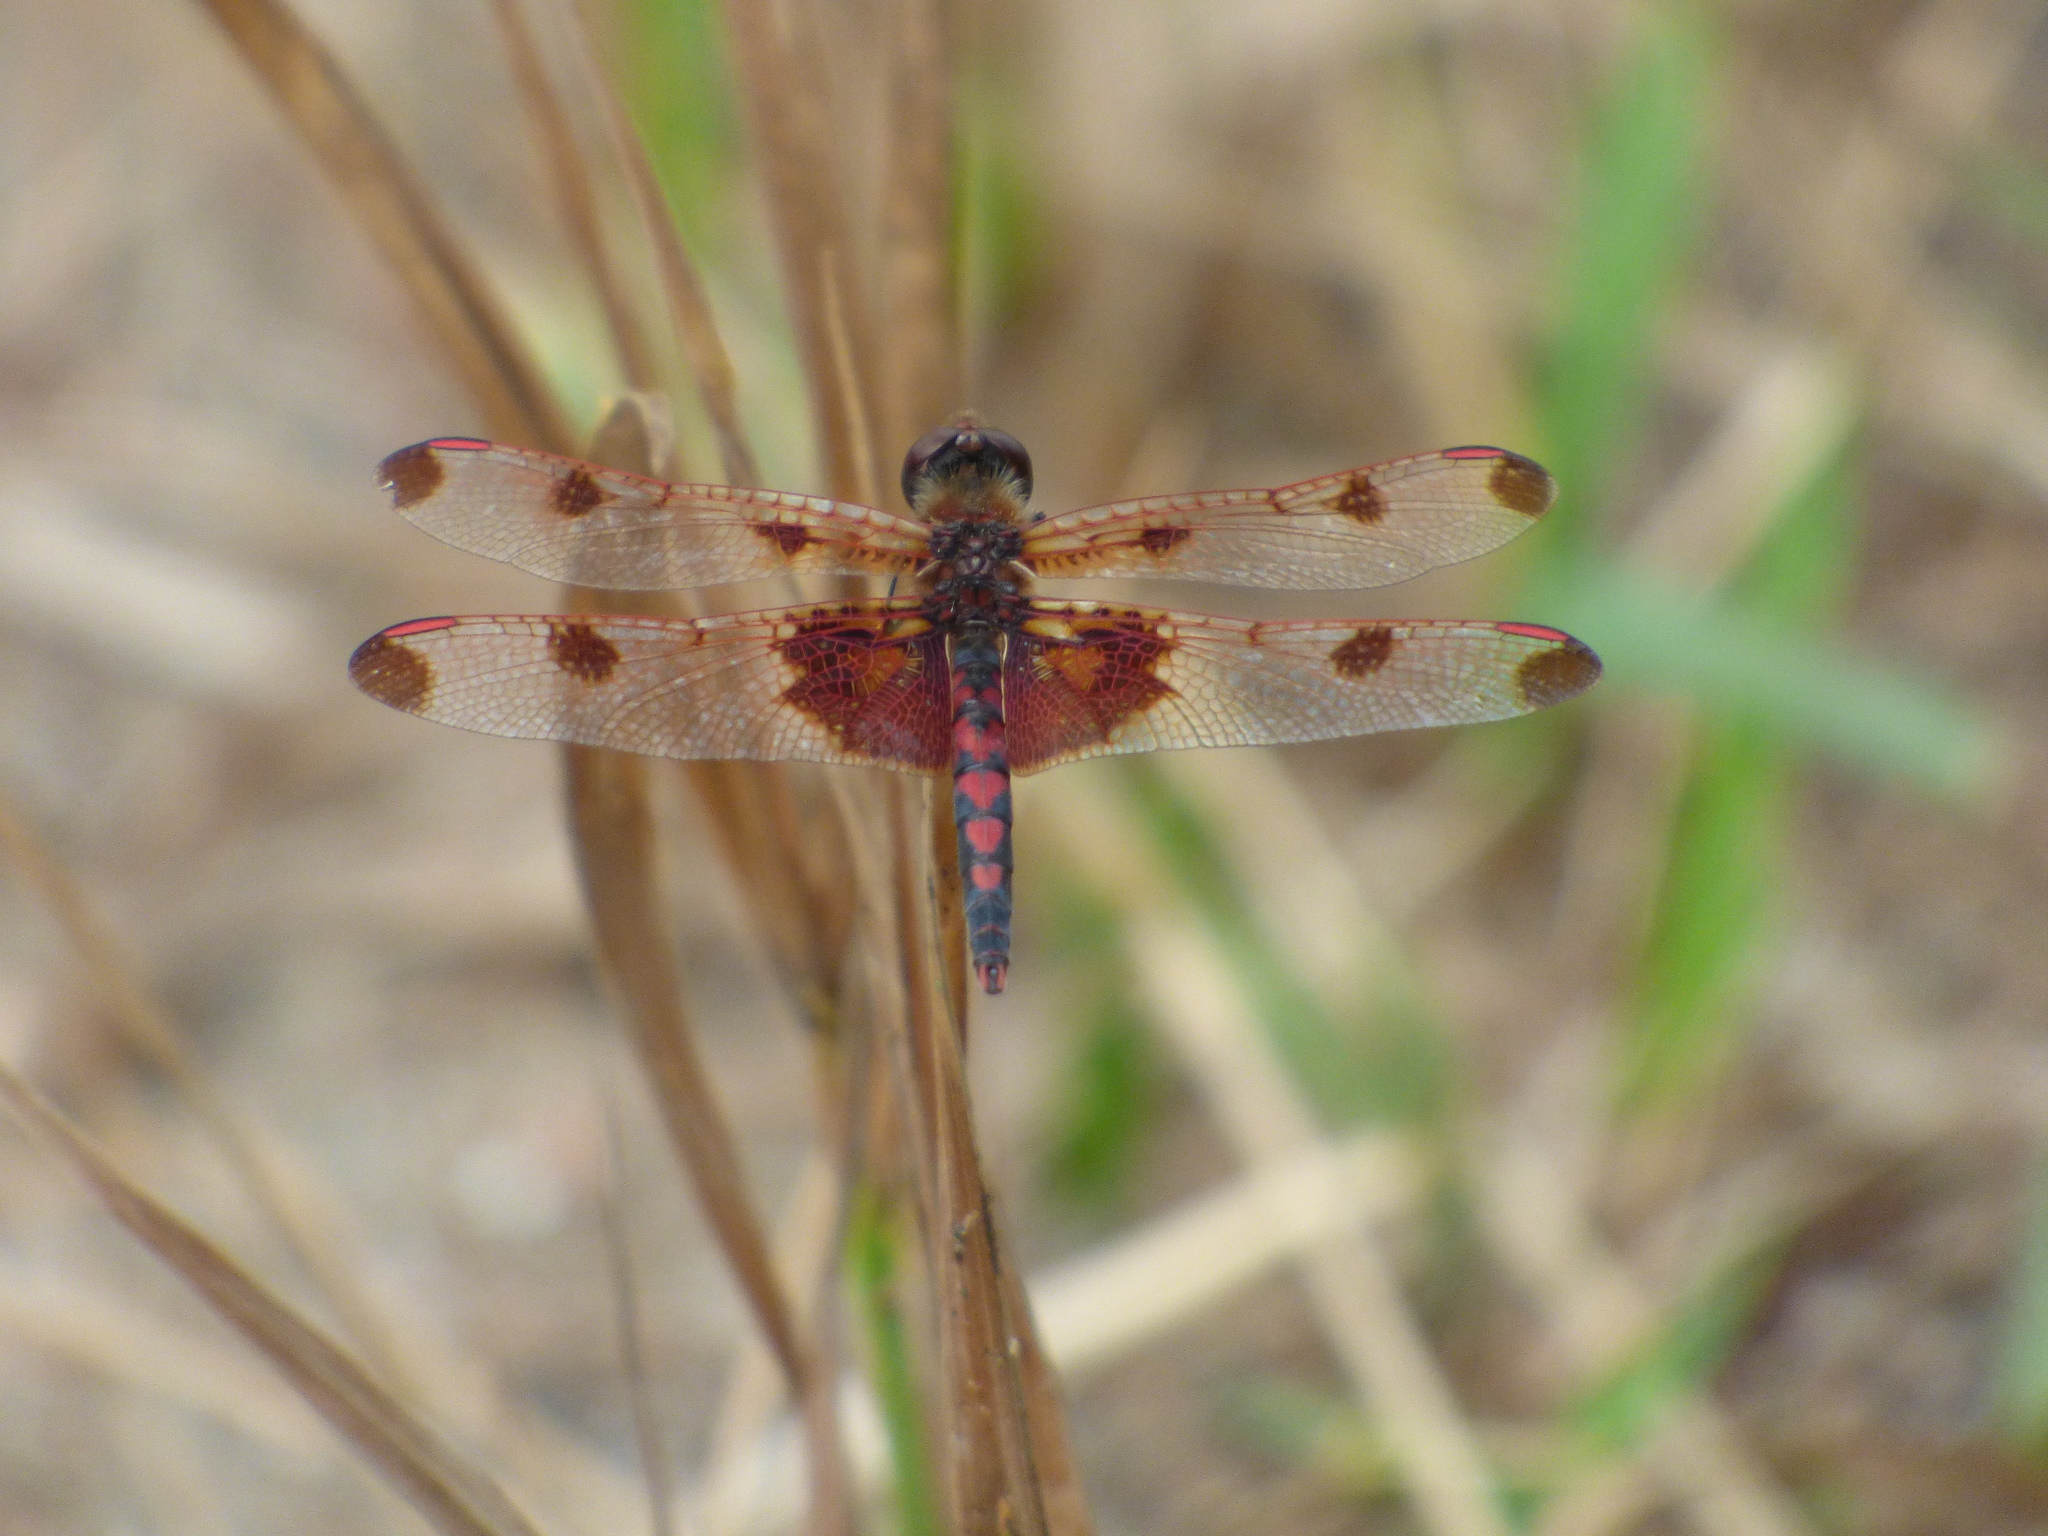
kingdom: Animalia
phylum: Arthropoda
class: Insecta
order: Odonata
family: Libellulidae
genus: Celithemis
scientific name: Celithemis elisa
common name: Calico pennant
